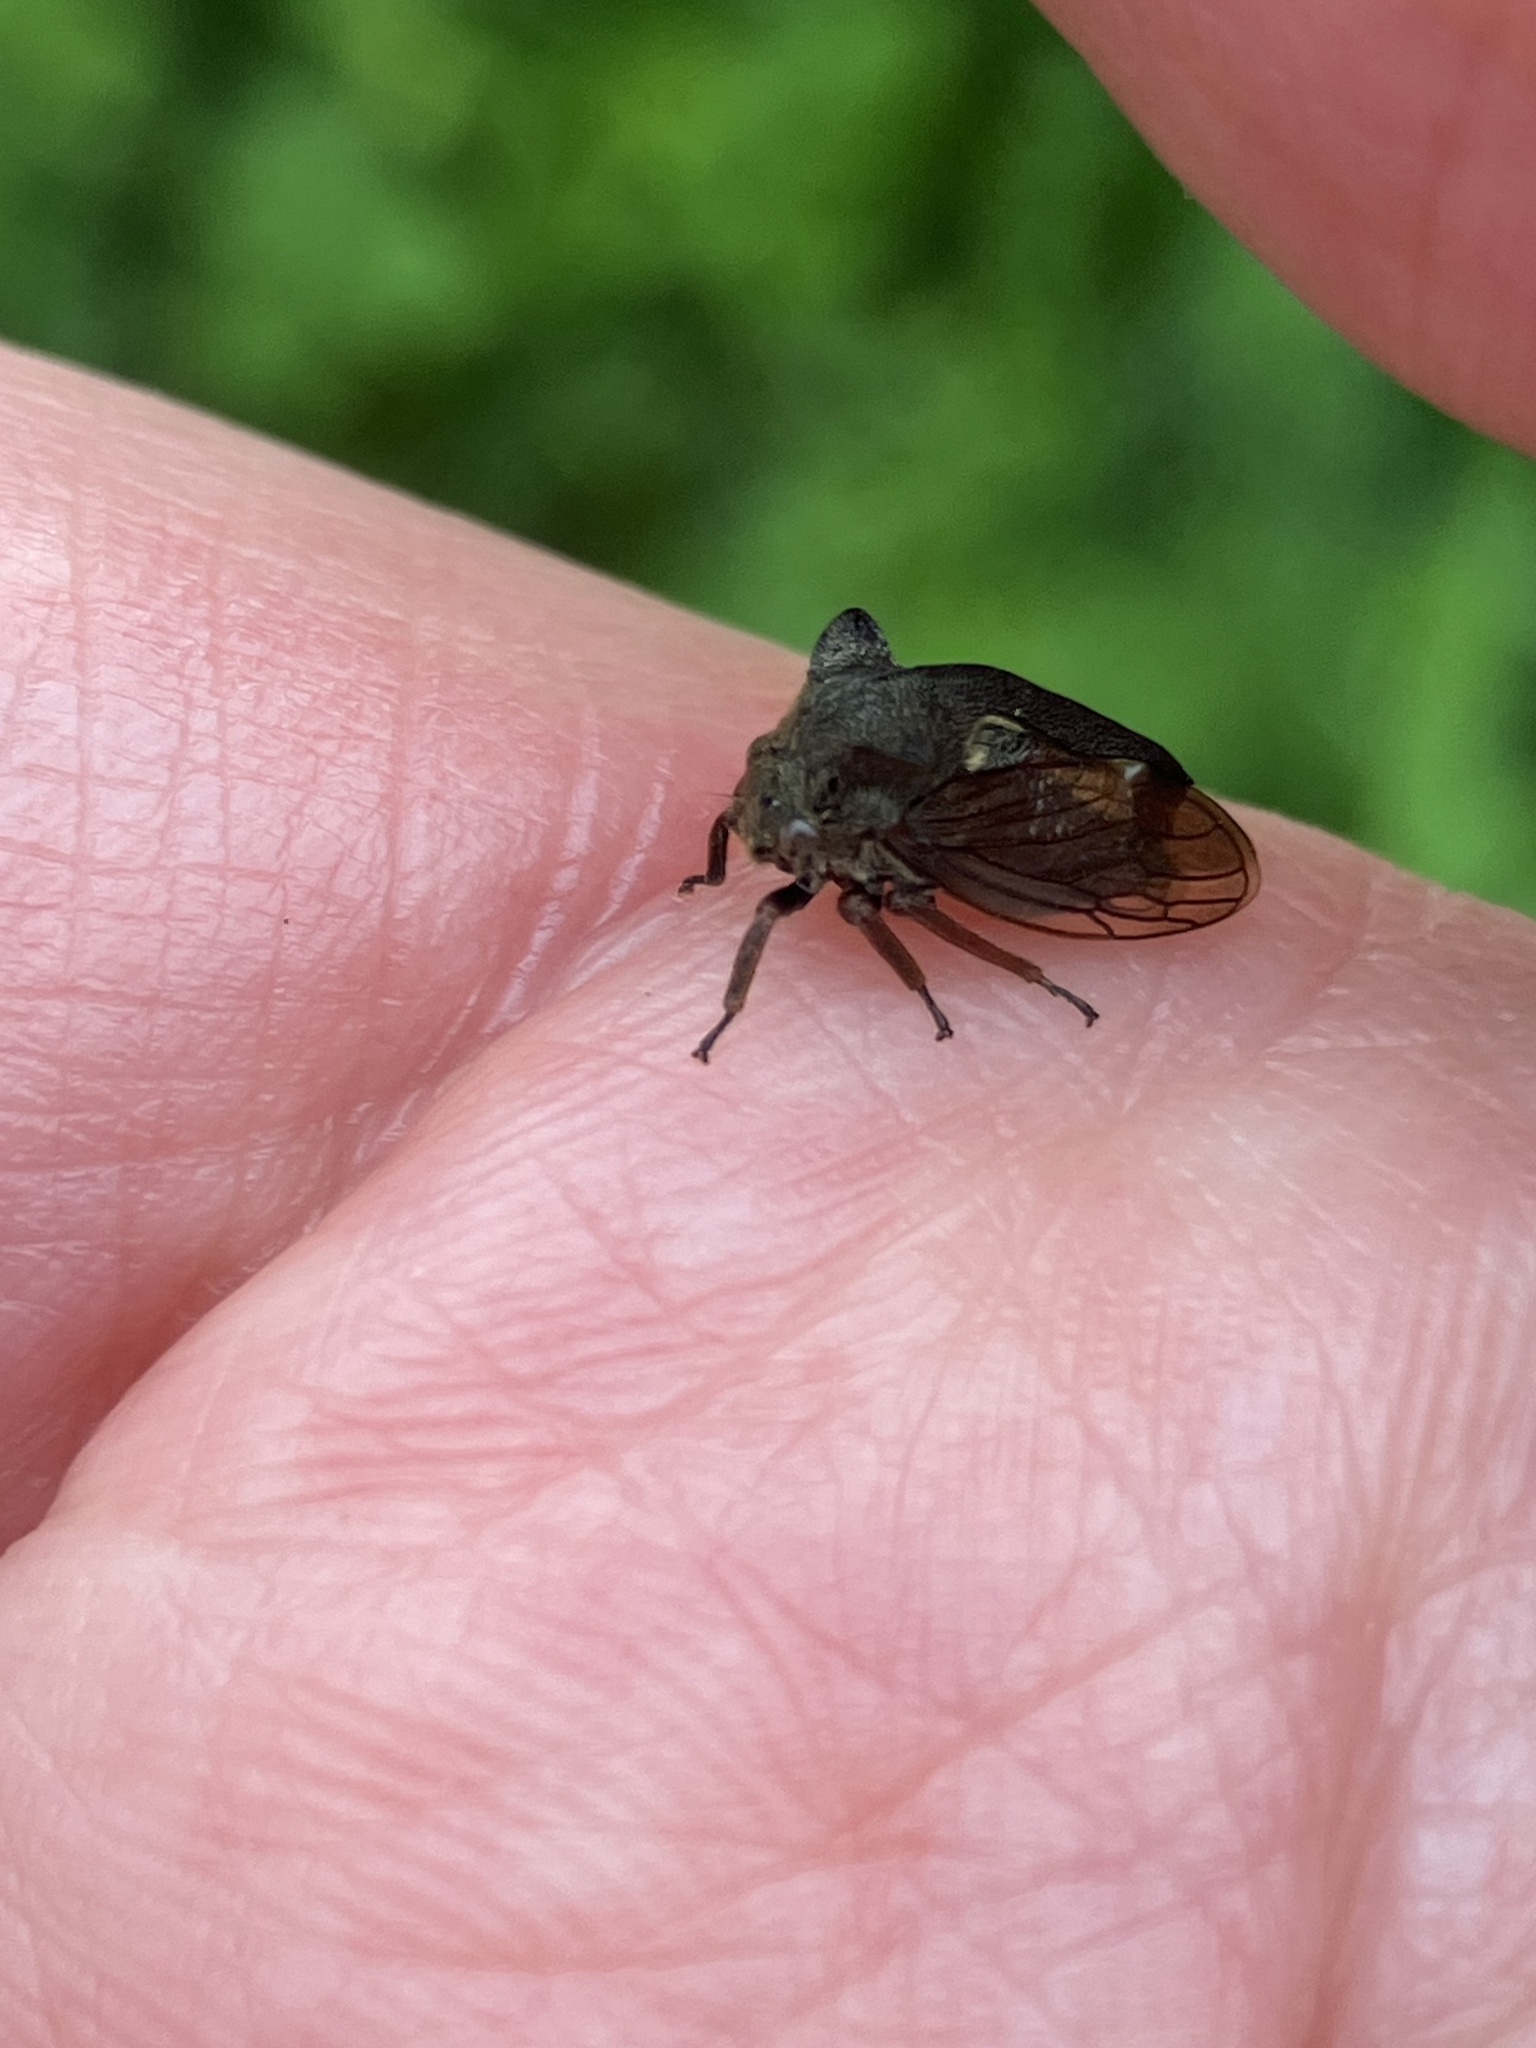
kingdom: Animalia
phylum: Arthropoda
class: Insecta
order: Hemiptera
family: Membracidae
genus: Centrotus
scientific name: Centrotus cornuta
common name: Treehopper
